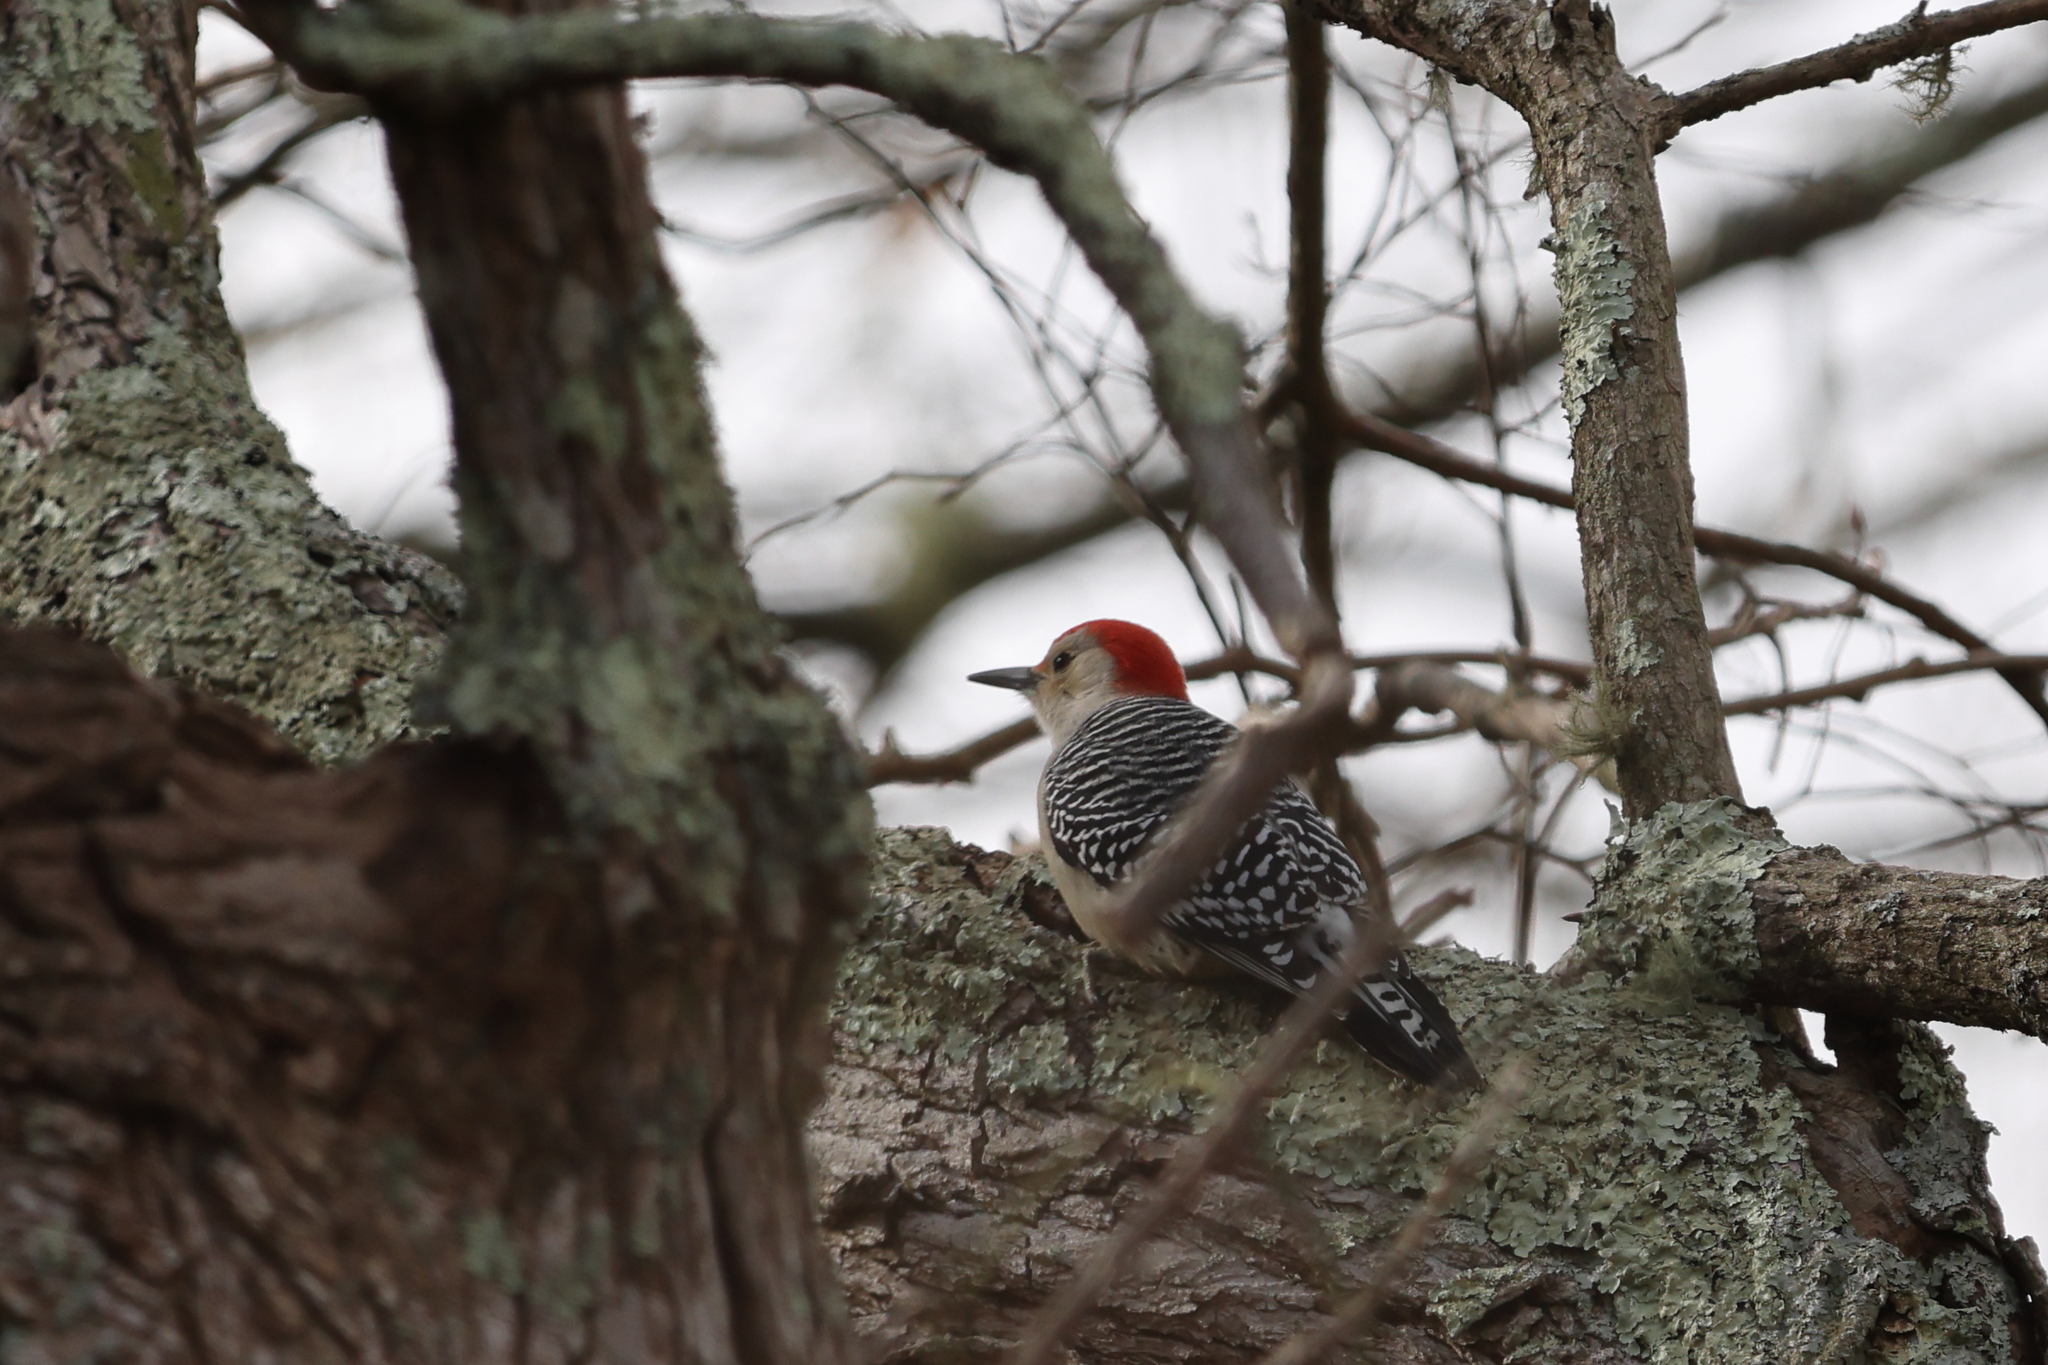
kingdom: Animalia
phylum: Chordata
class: Aves
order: Piciformes
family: Picidae
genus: Melanerpes
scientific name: Melanerpes carolinus
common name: Red-bellied woodpecker
